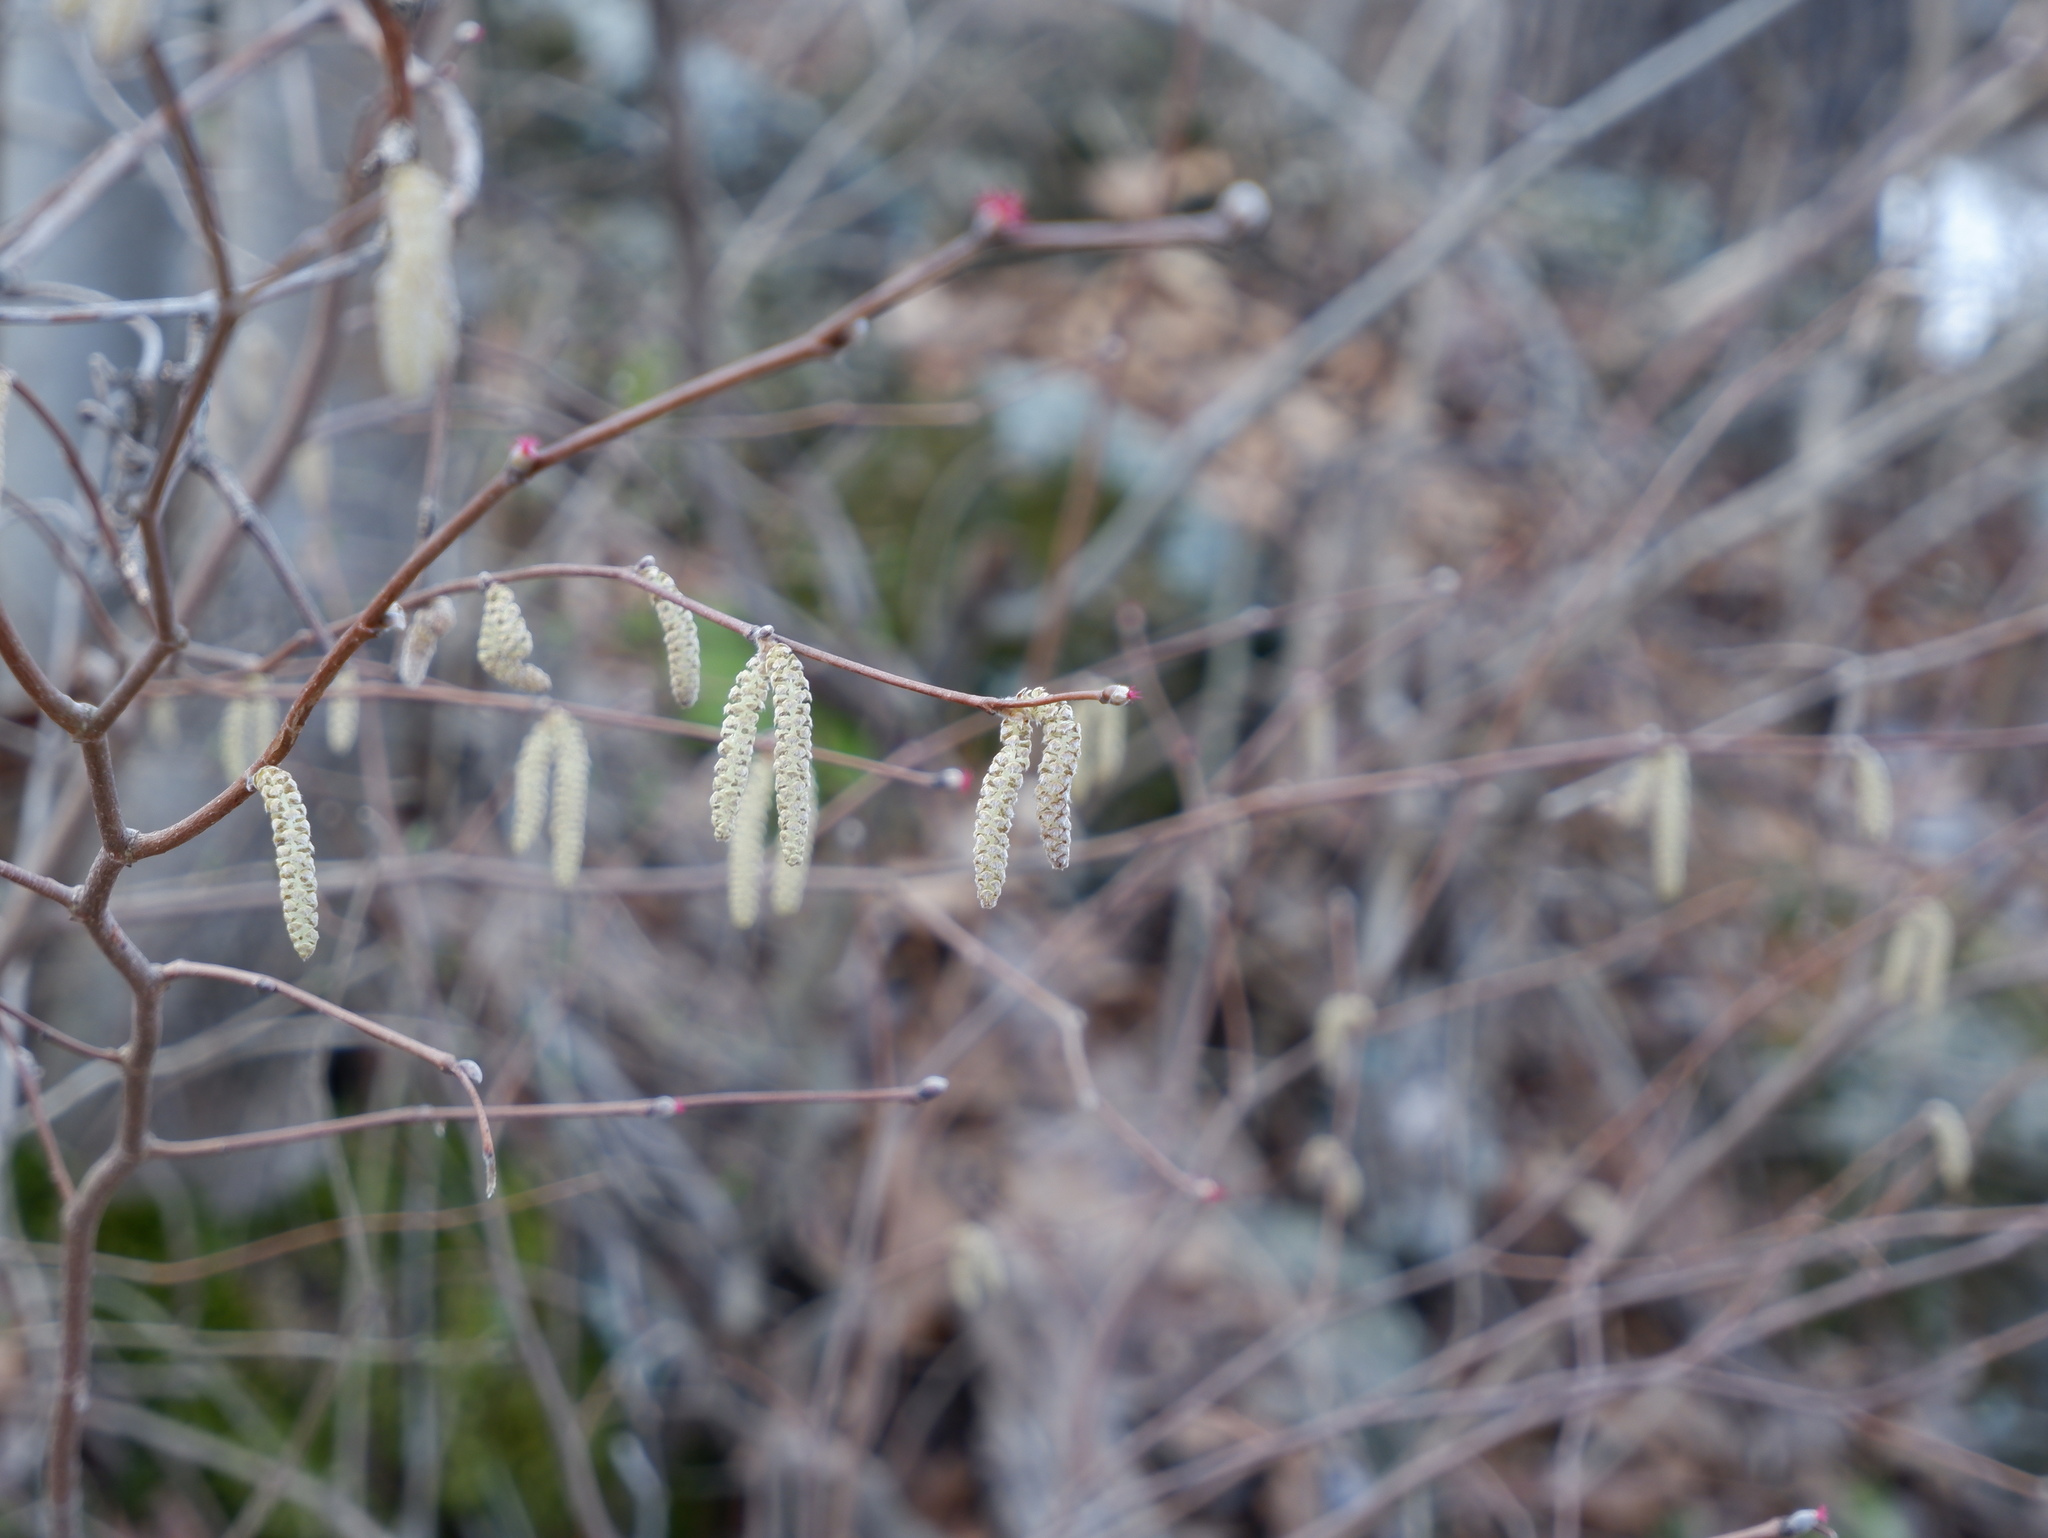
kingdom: Plantae
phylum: Tracheophyta
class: Magnoliopsida
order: Fagales
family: Betulaceae
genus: Corylus
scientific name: Corylus cornuta
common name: Beaked hazel
